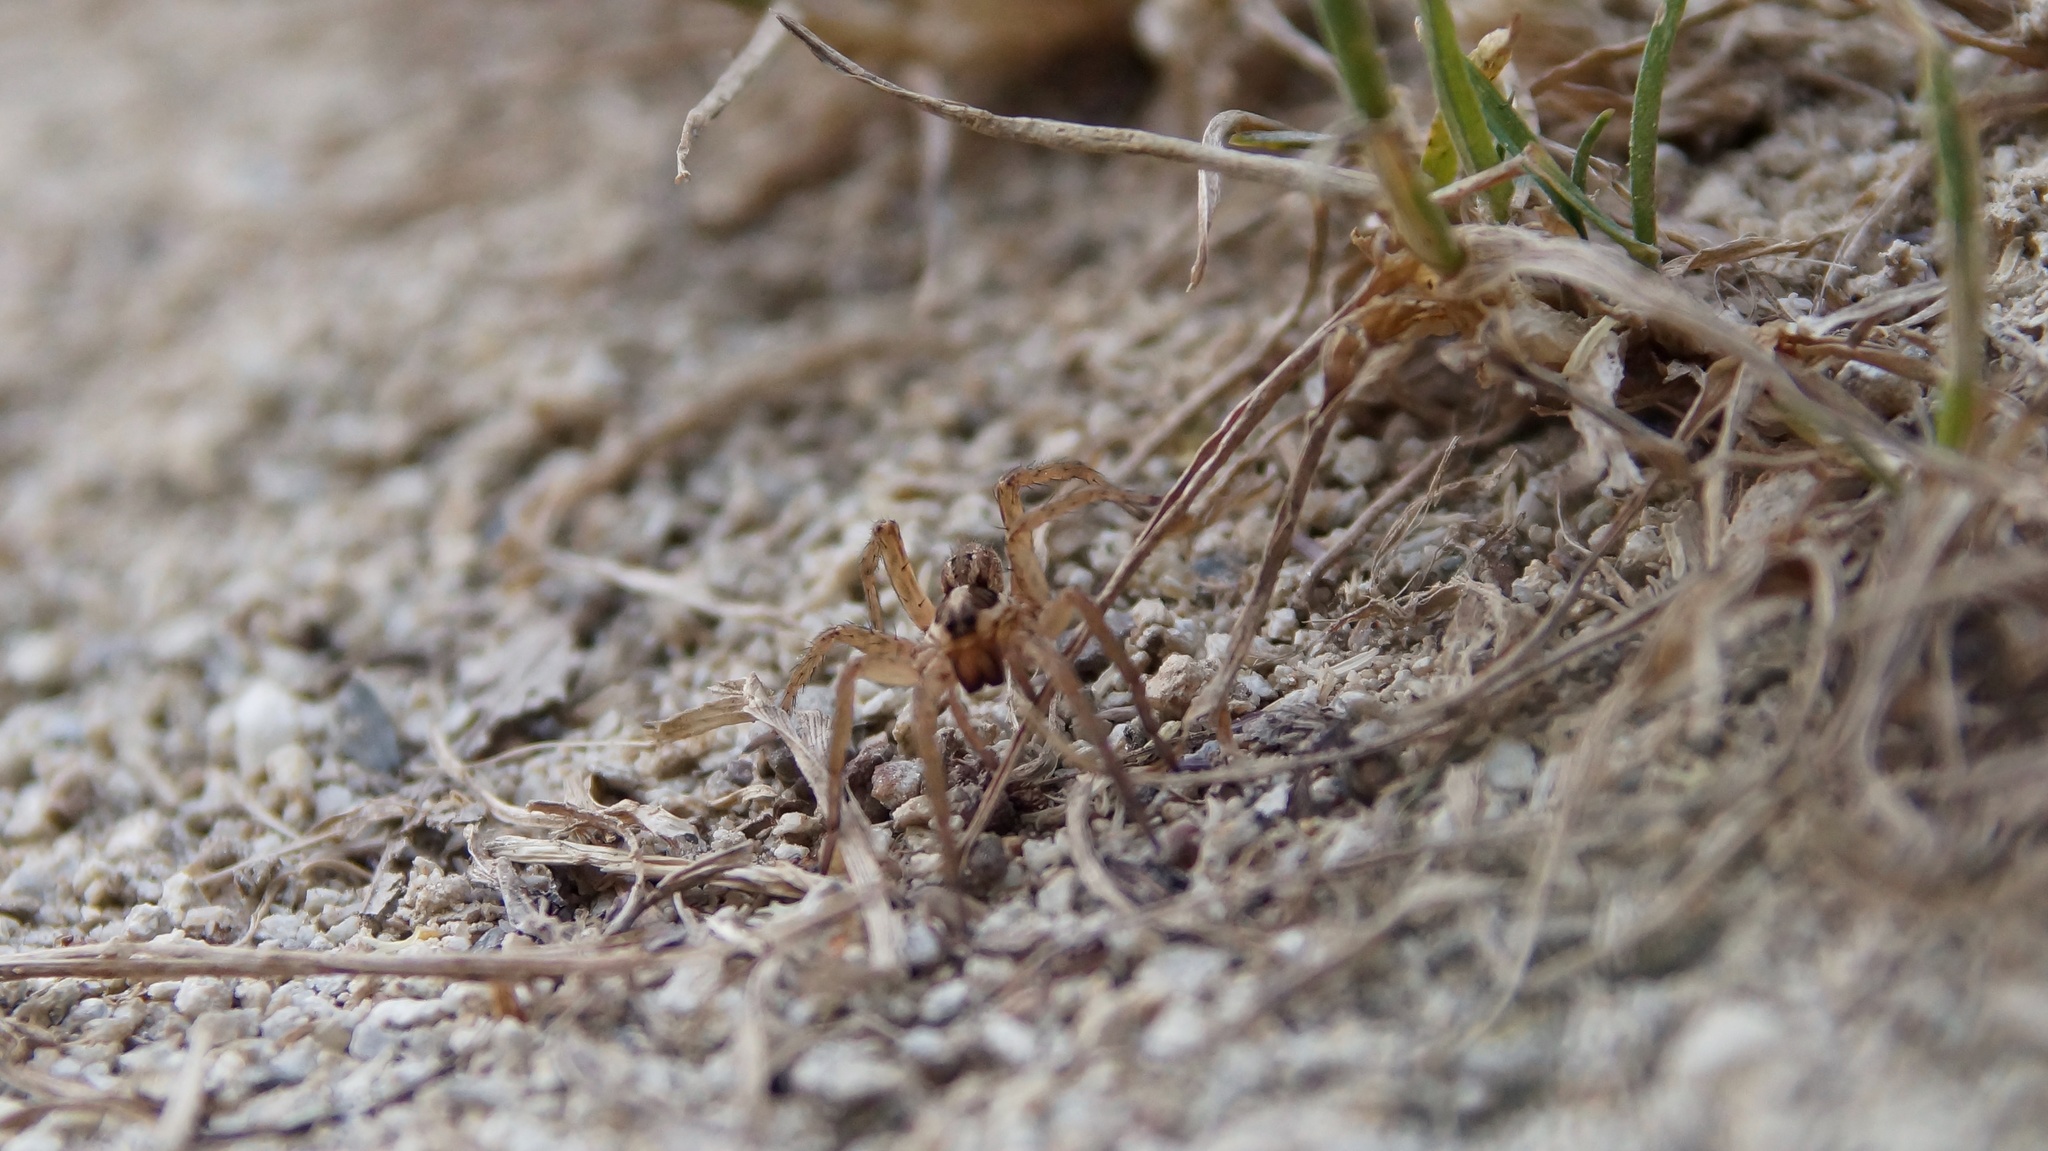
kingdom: Animalia
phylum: Arthropoda
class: Arachnida
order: Araneae
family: Lycosidae
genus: Hogna
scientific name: Hogna radiata
